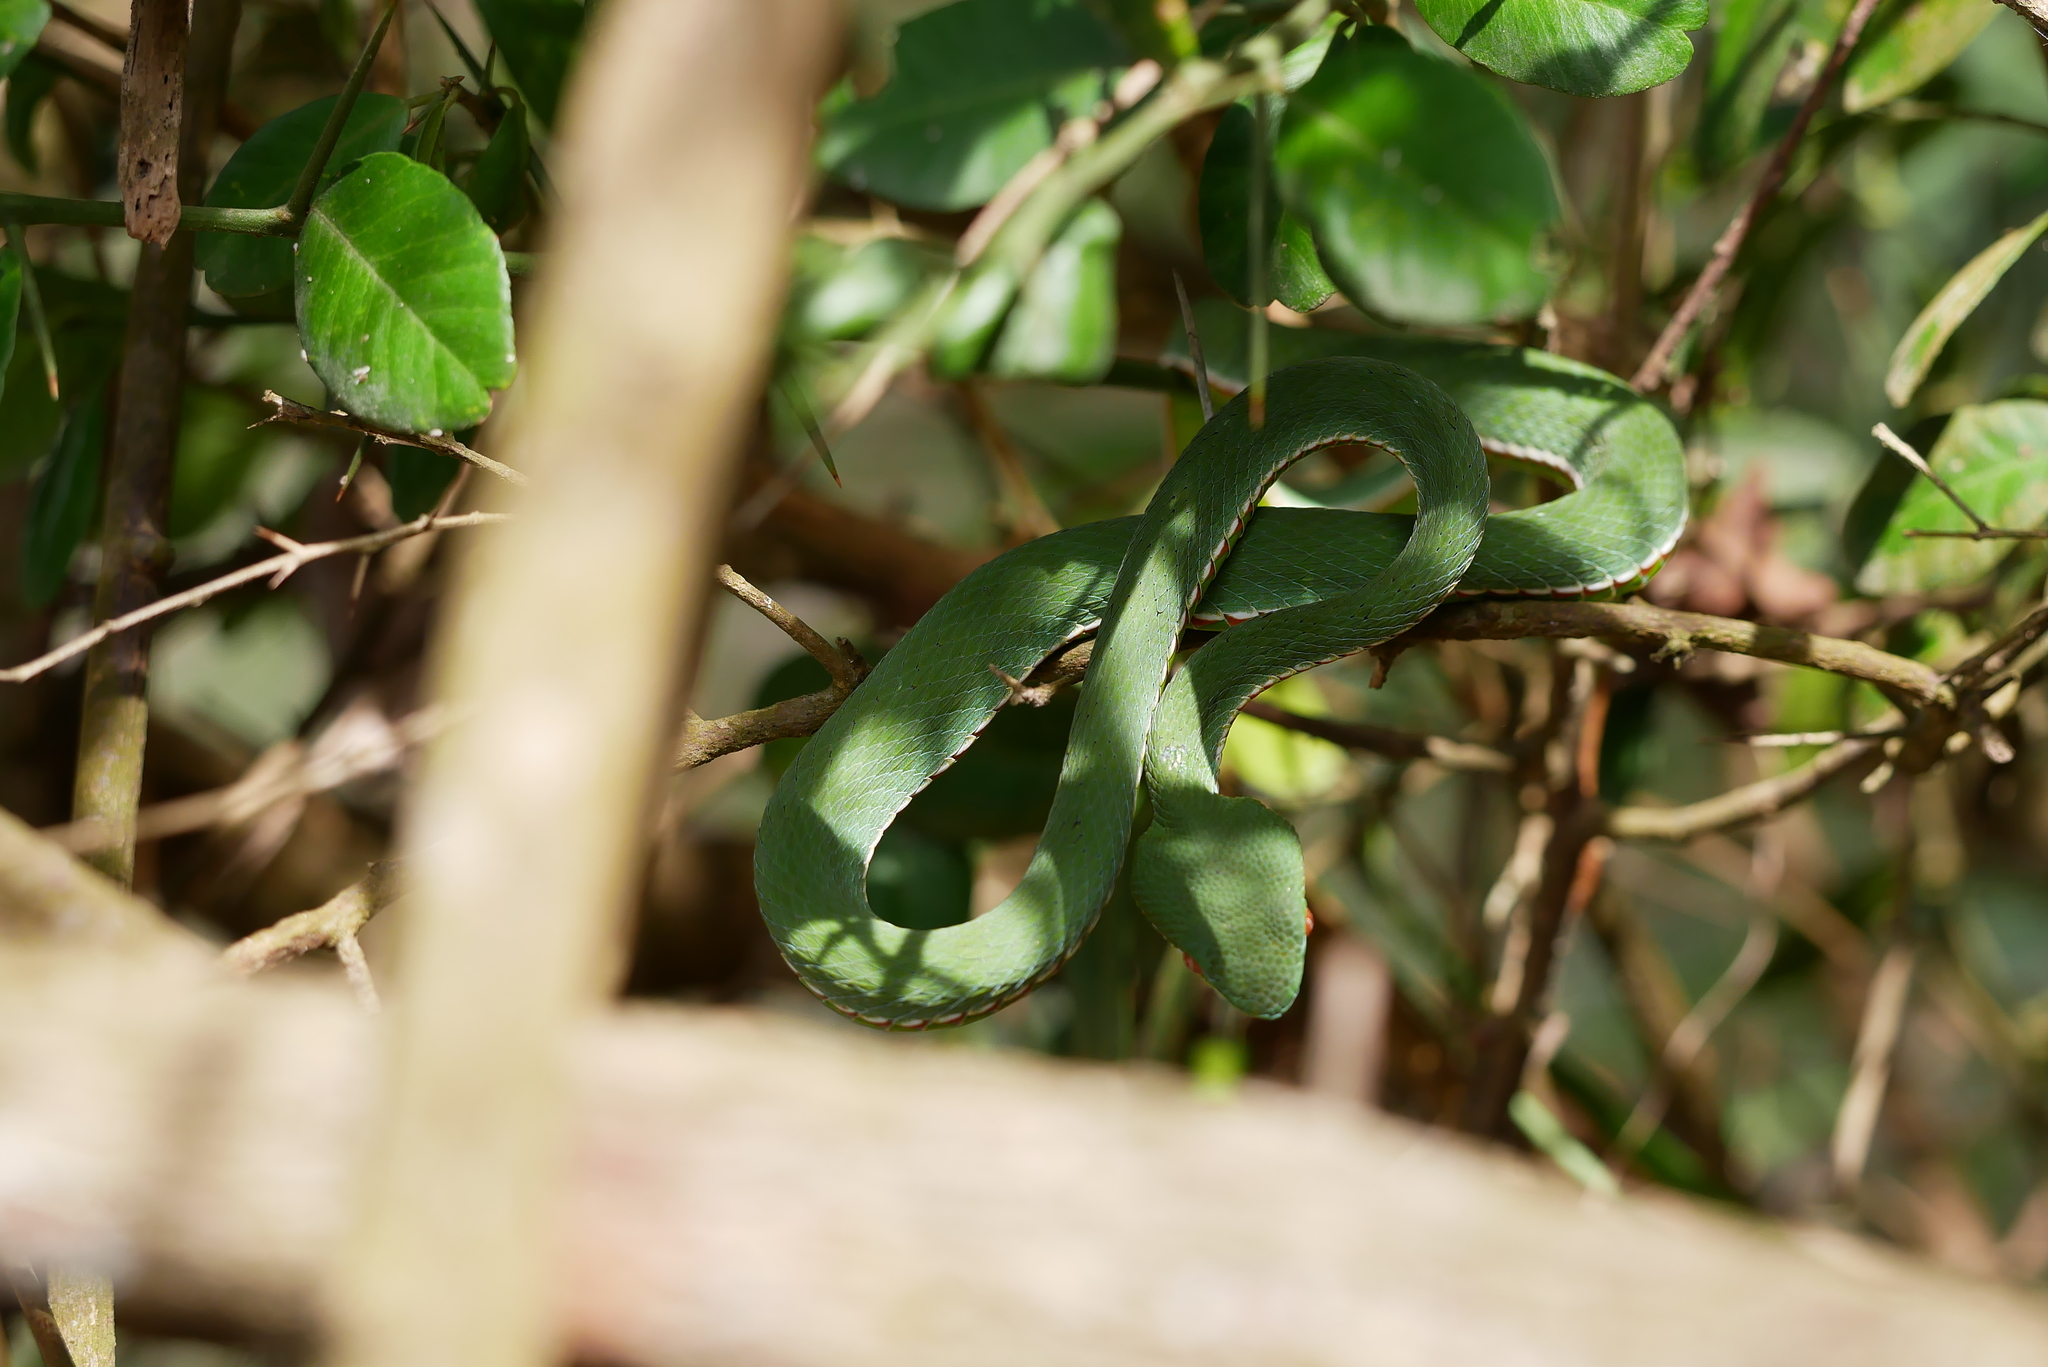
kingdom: Animalia
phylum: Chordata
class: Squamata
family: Viperidae
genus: Trimeresurus
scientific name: Trimeresurus stejnegeri
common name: Chen’s bamboo pit viper
